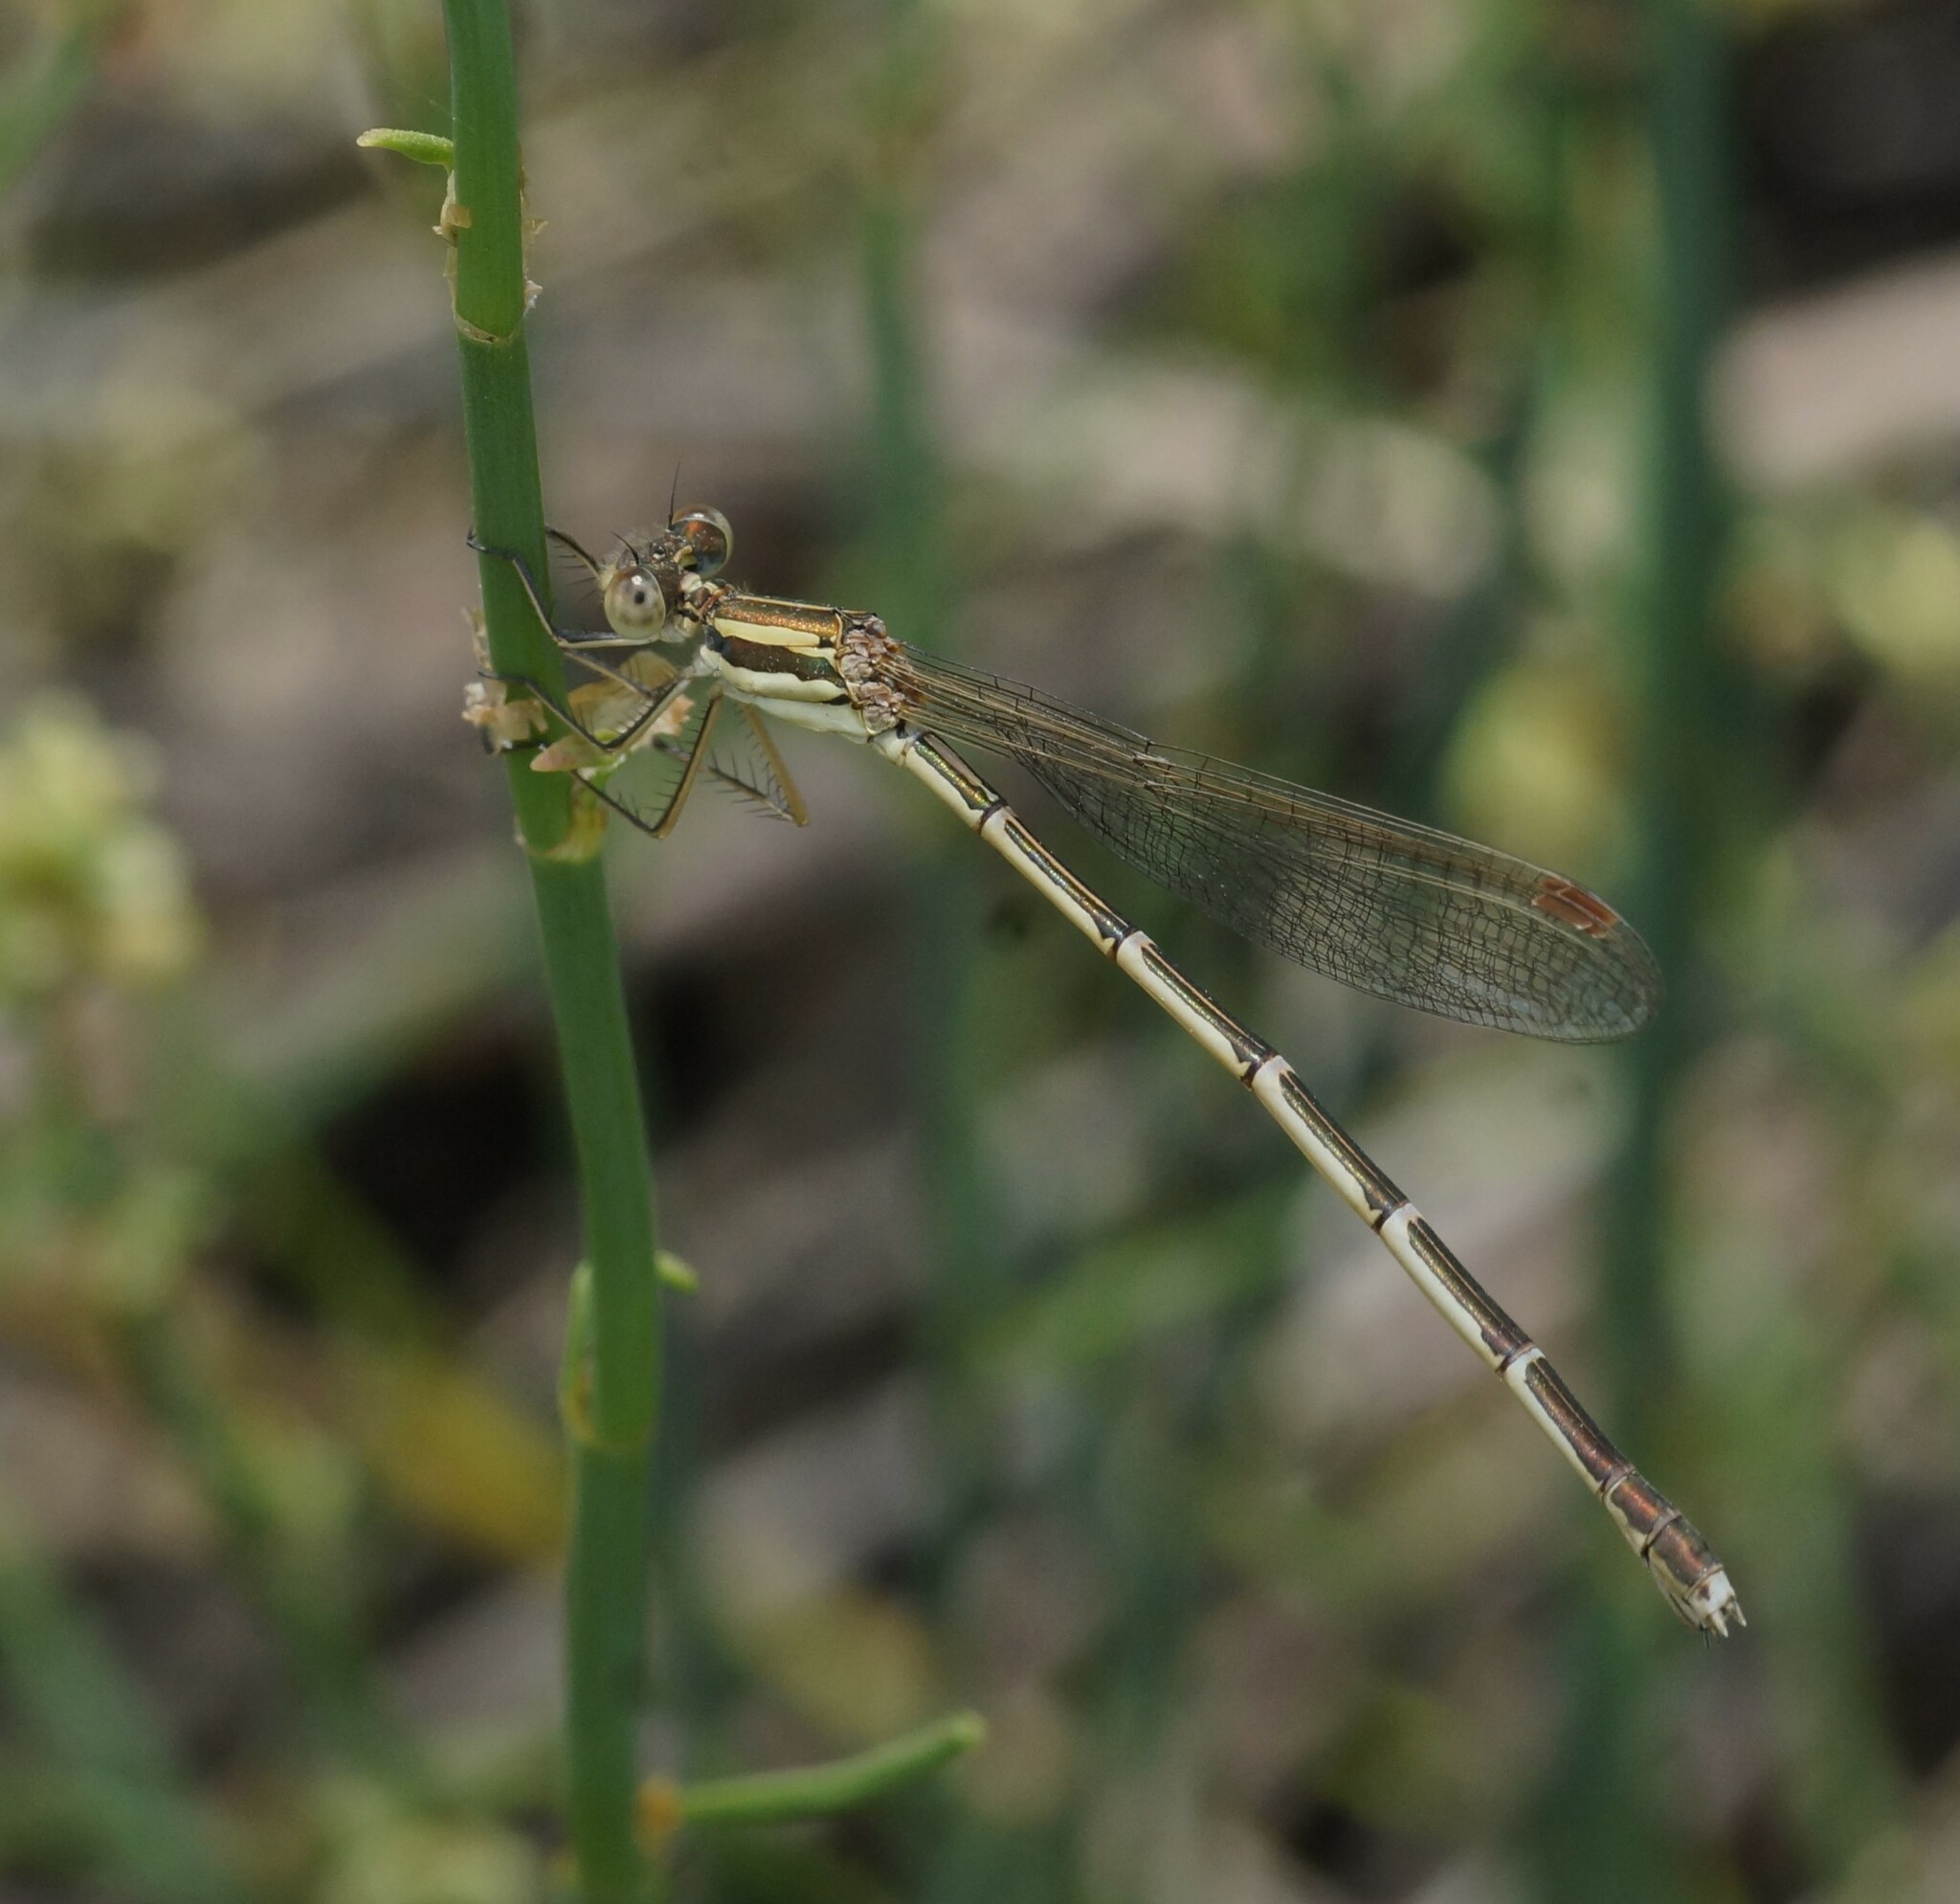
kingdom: Animalia
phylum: Arthropoda
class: Insecta
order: Odonata
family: Lestidae
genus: Austrolestes
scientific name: Austrolestes analis
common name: Slender ringtail
